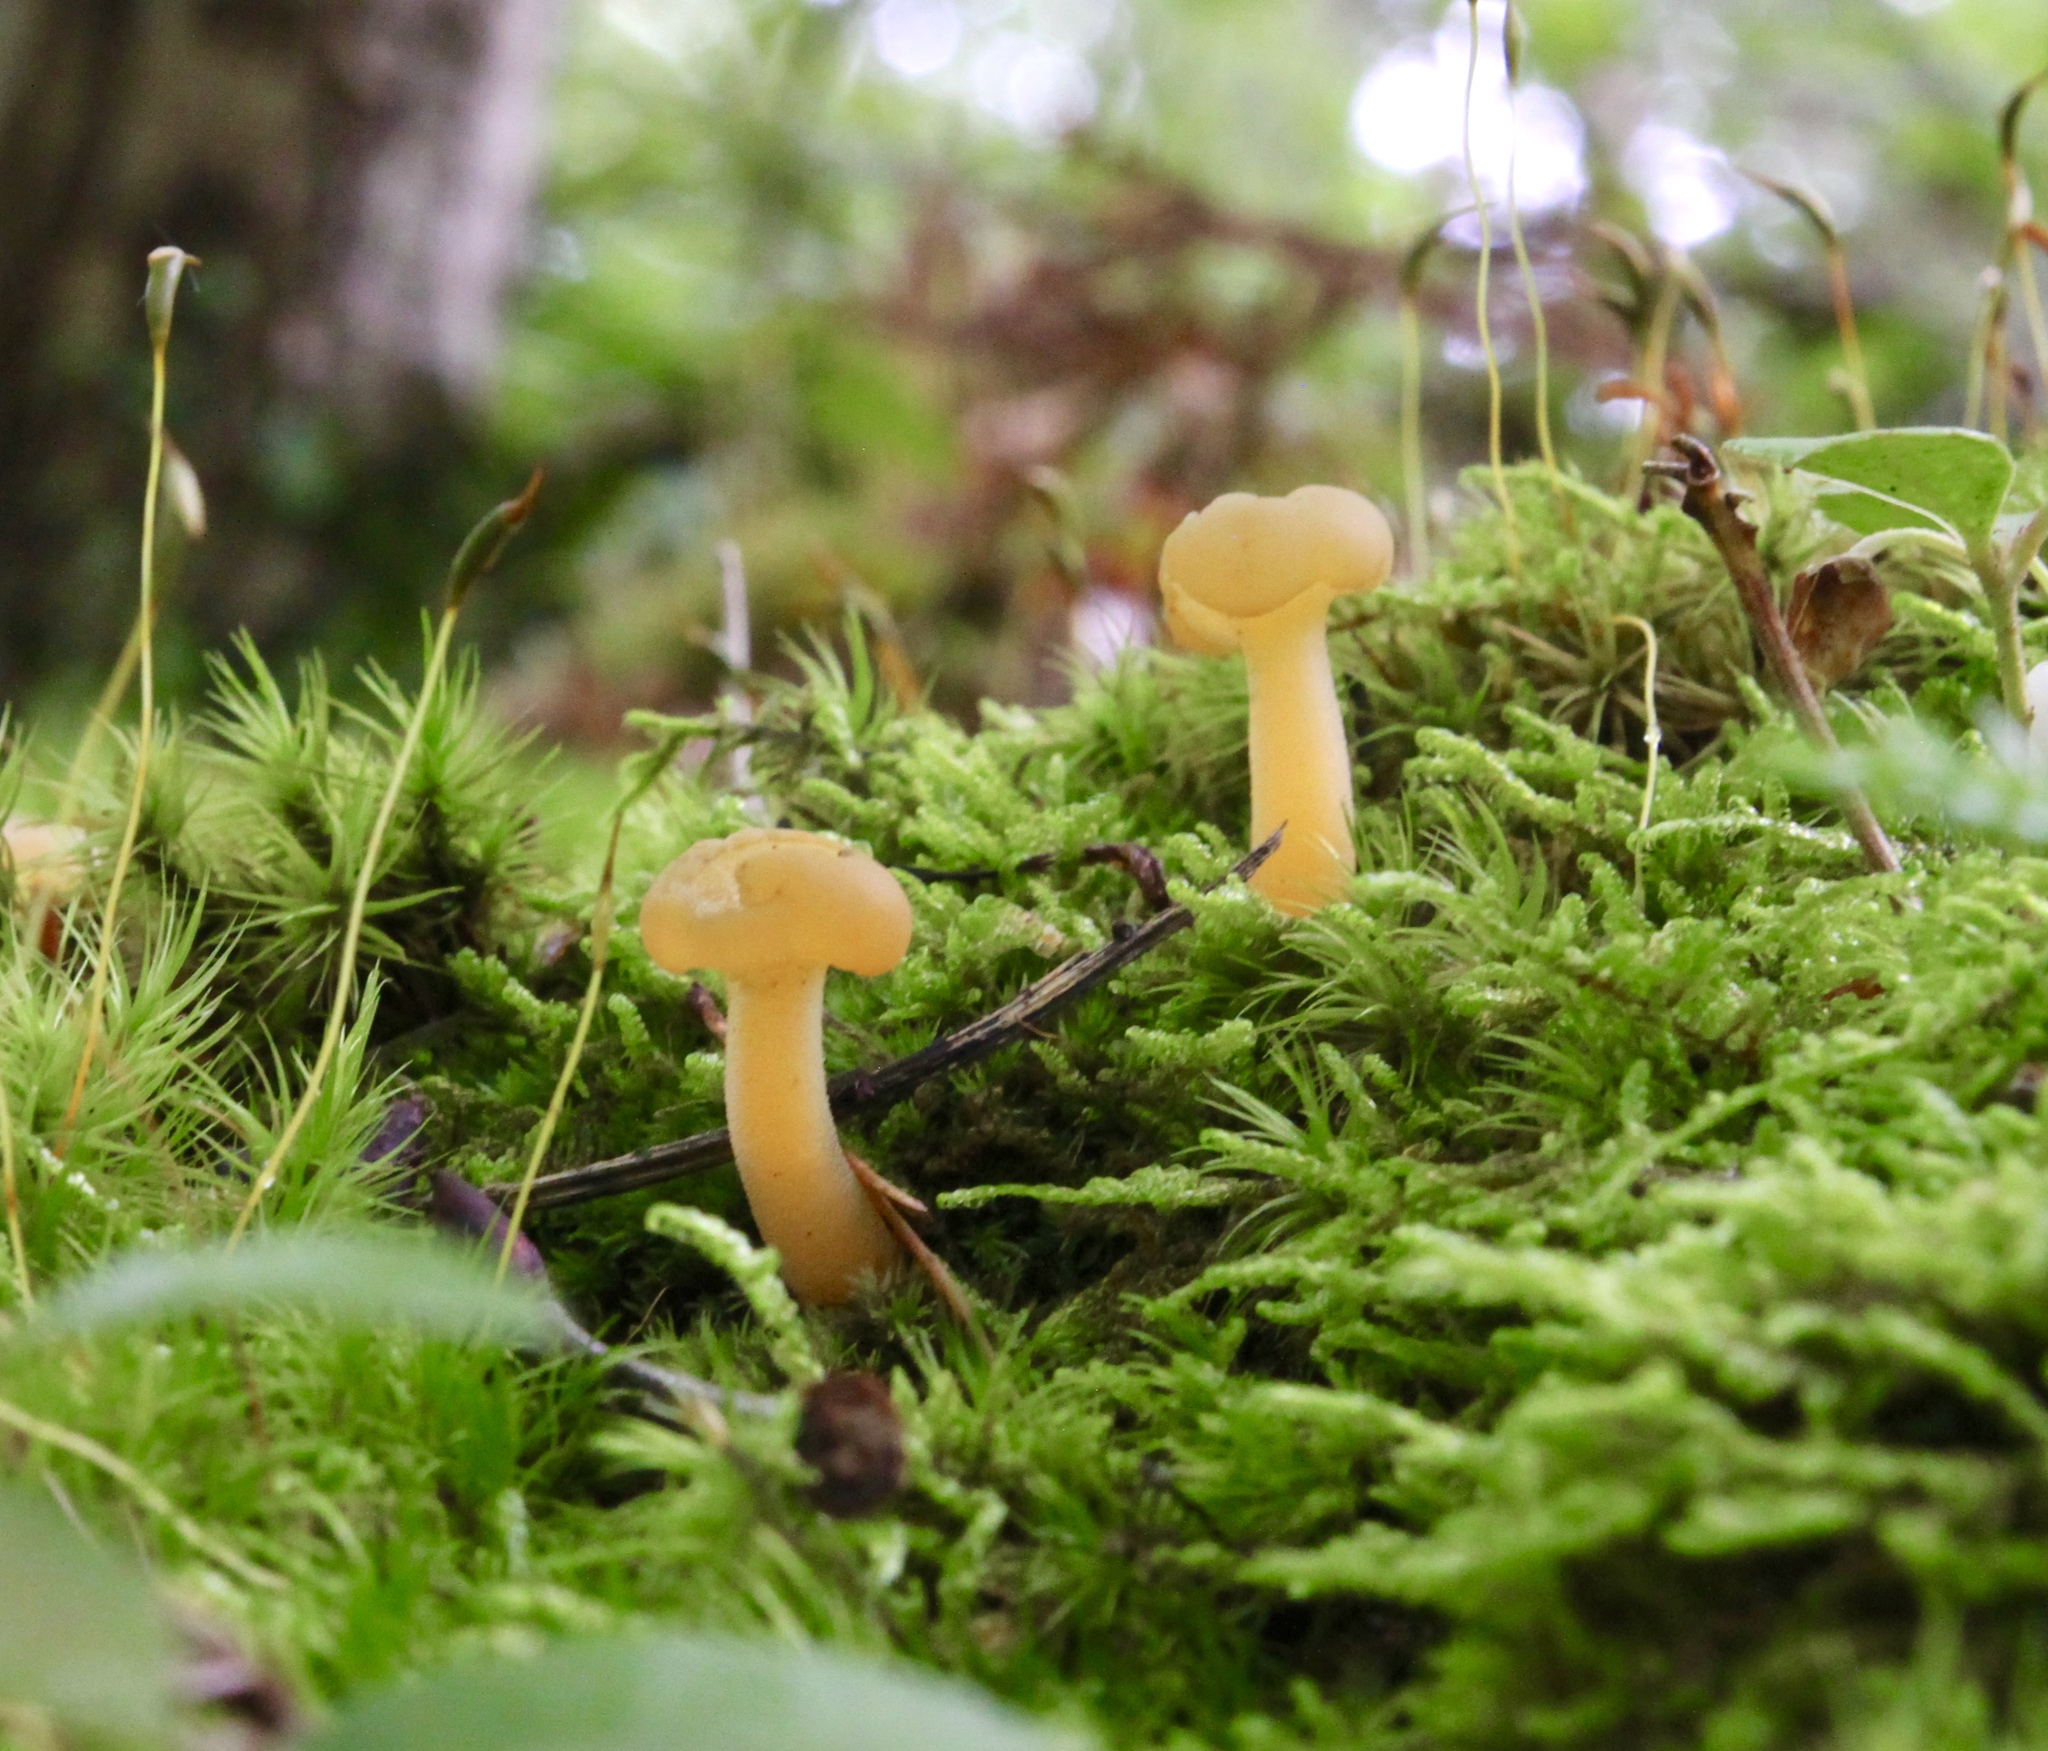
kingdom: Fungi
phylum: Ascomycota
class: Leotiomycetes
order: Leotiales
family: Leotiaceae
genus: Leotia
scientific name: Leotia lubrica
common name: Jellybaby
